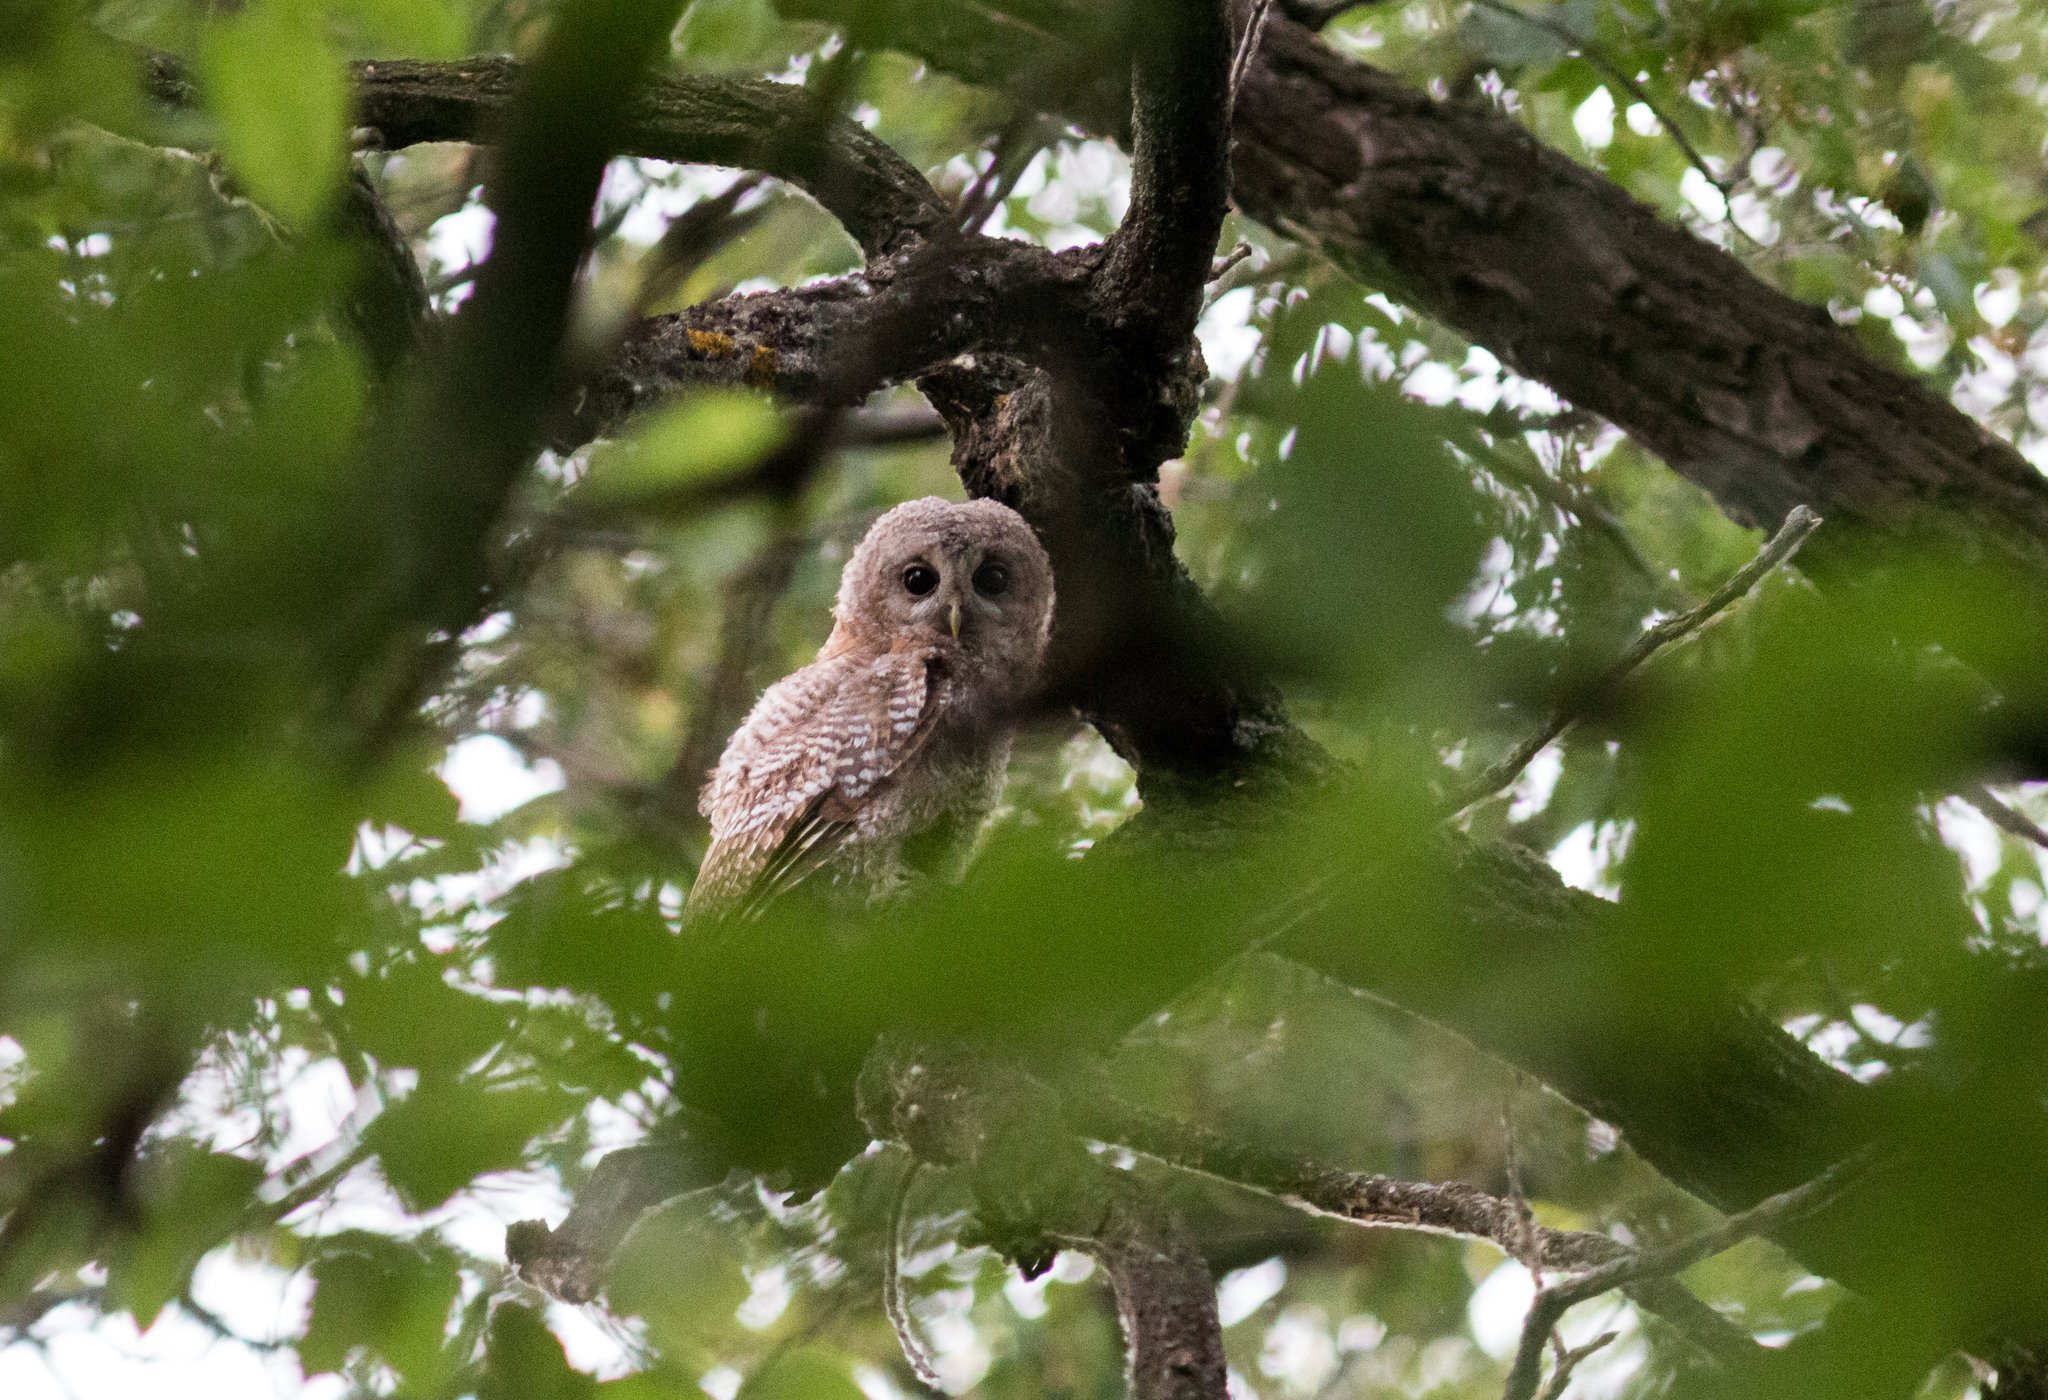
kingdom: Animalia
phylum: Chordata
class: Aves
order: Strigiformes
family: Strigidae
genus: Strix
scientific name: Strix aluco
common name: Tawny owl
